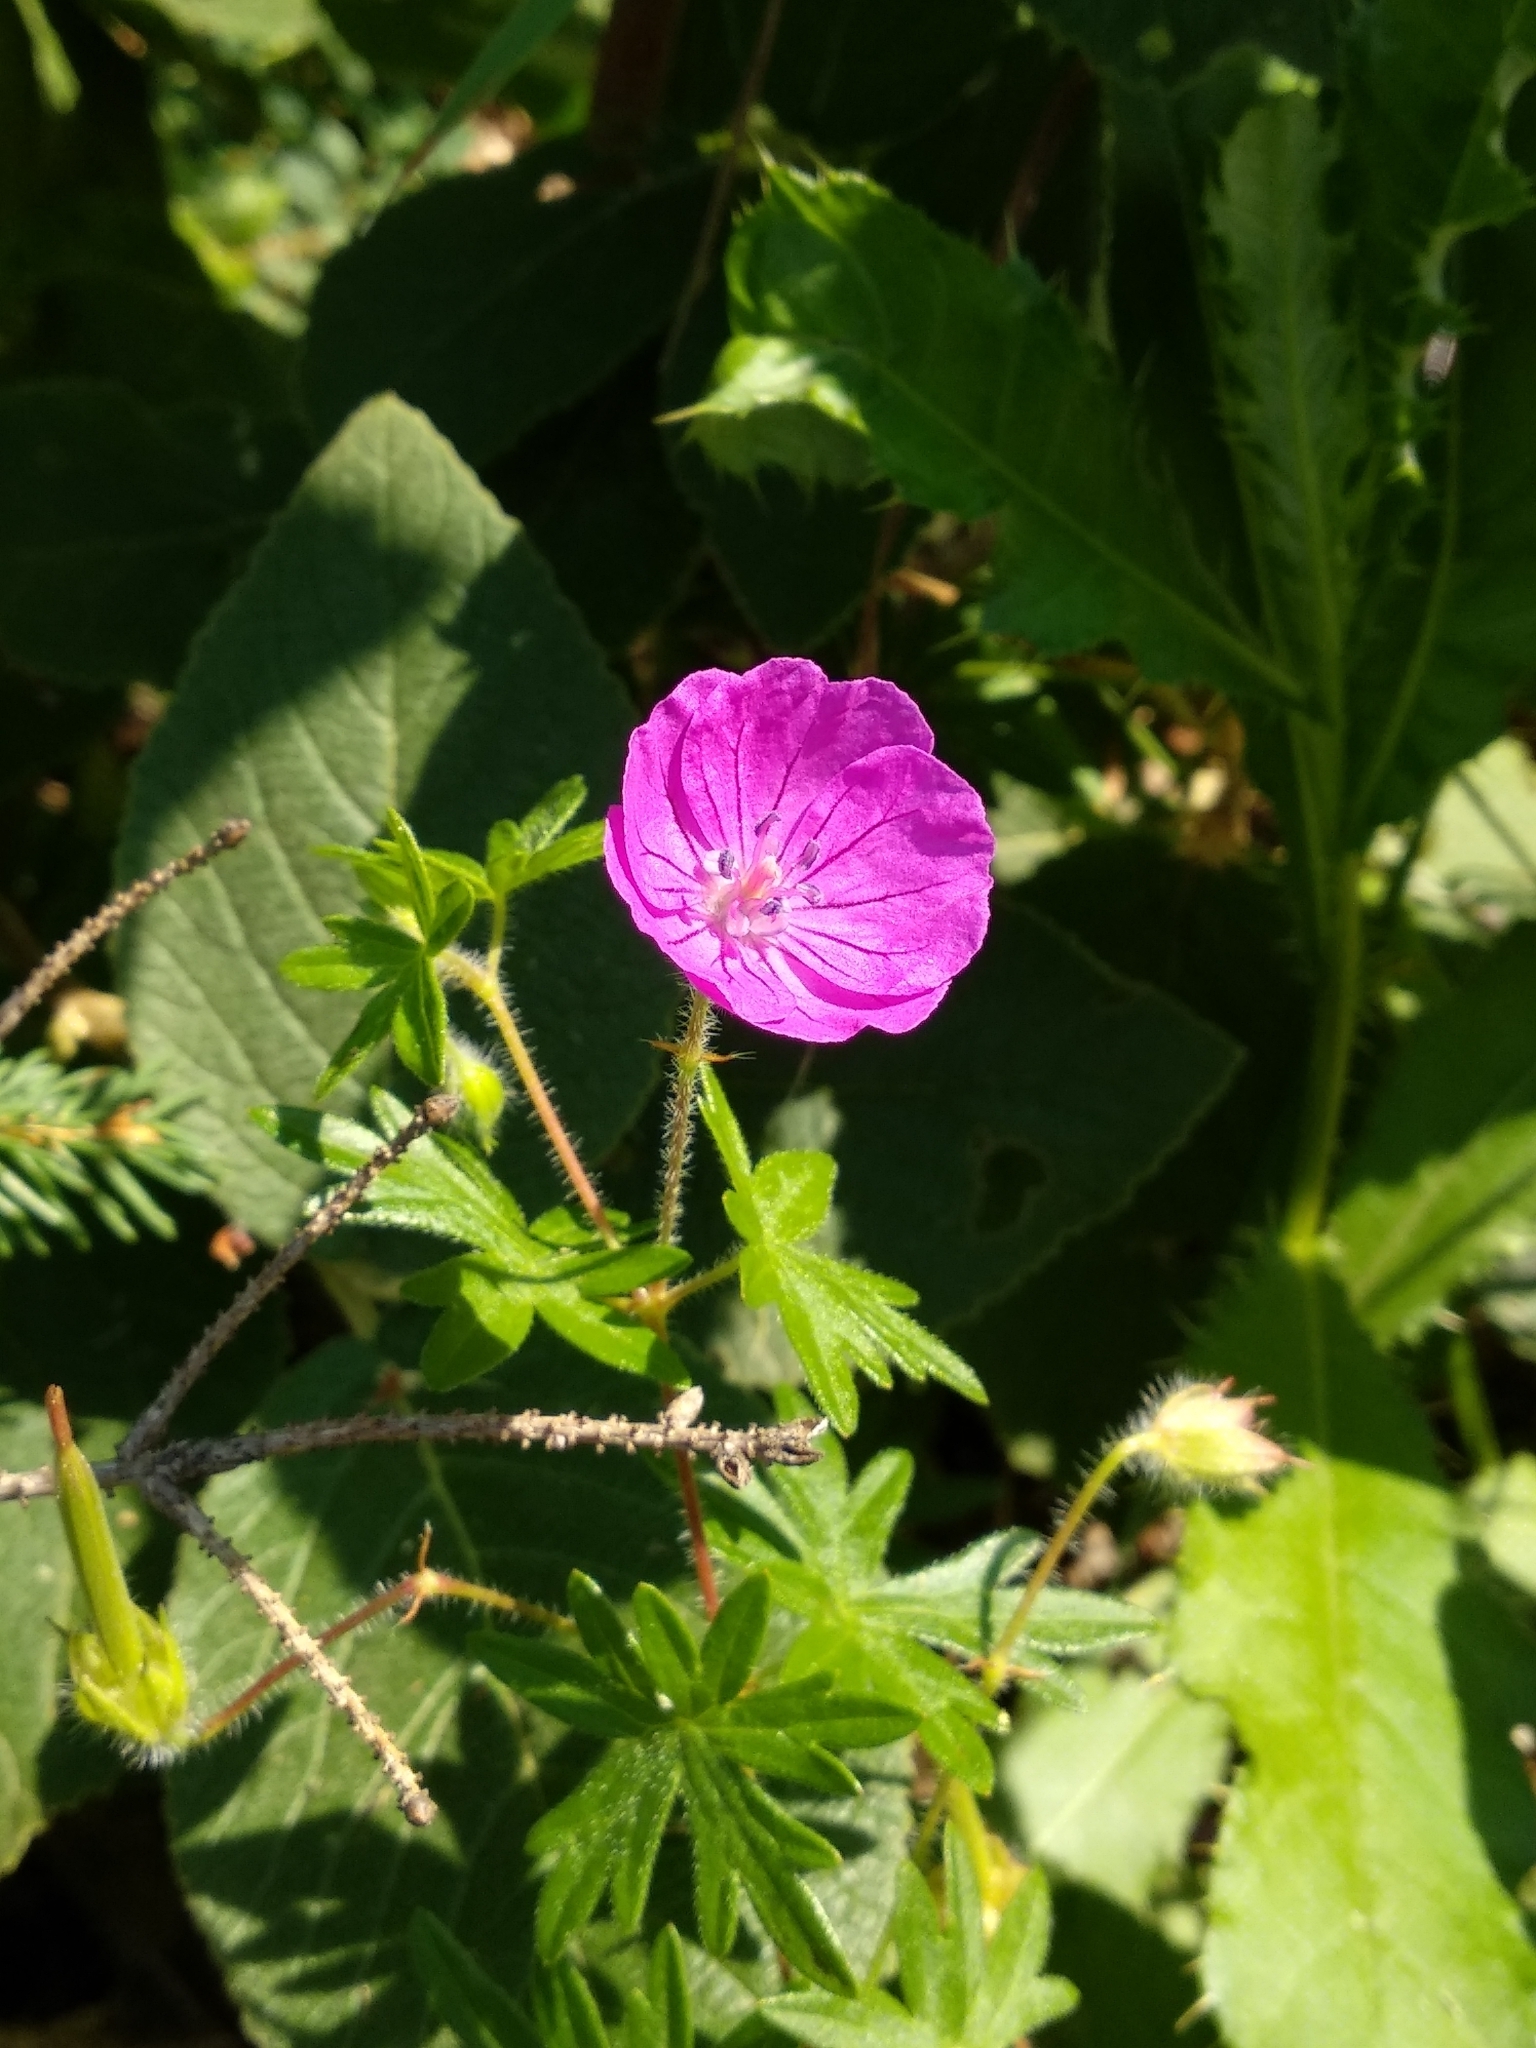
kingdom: Plantae
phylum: Tracheophyta
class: Magnoliopsida
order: Geraniales
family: Geraniaceae
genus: Geranium
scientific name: Geranium sanguineum
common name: Bloody crane's-bill
